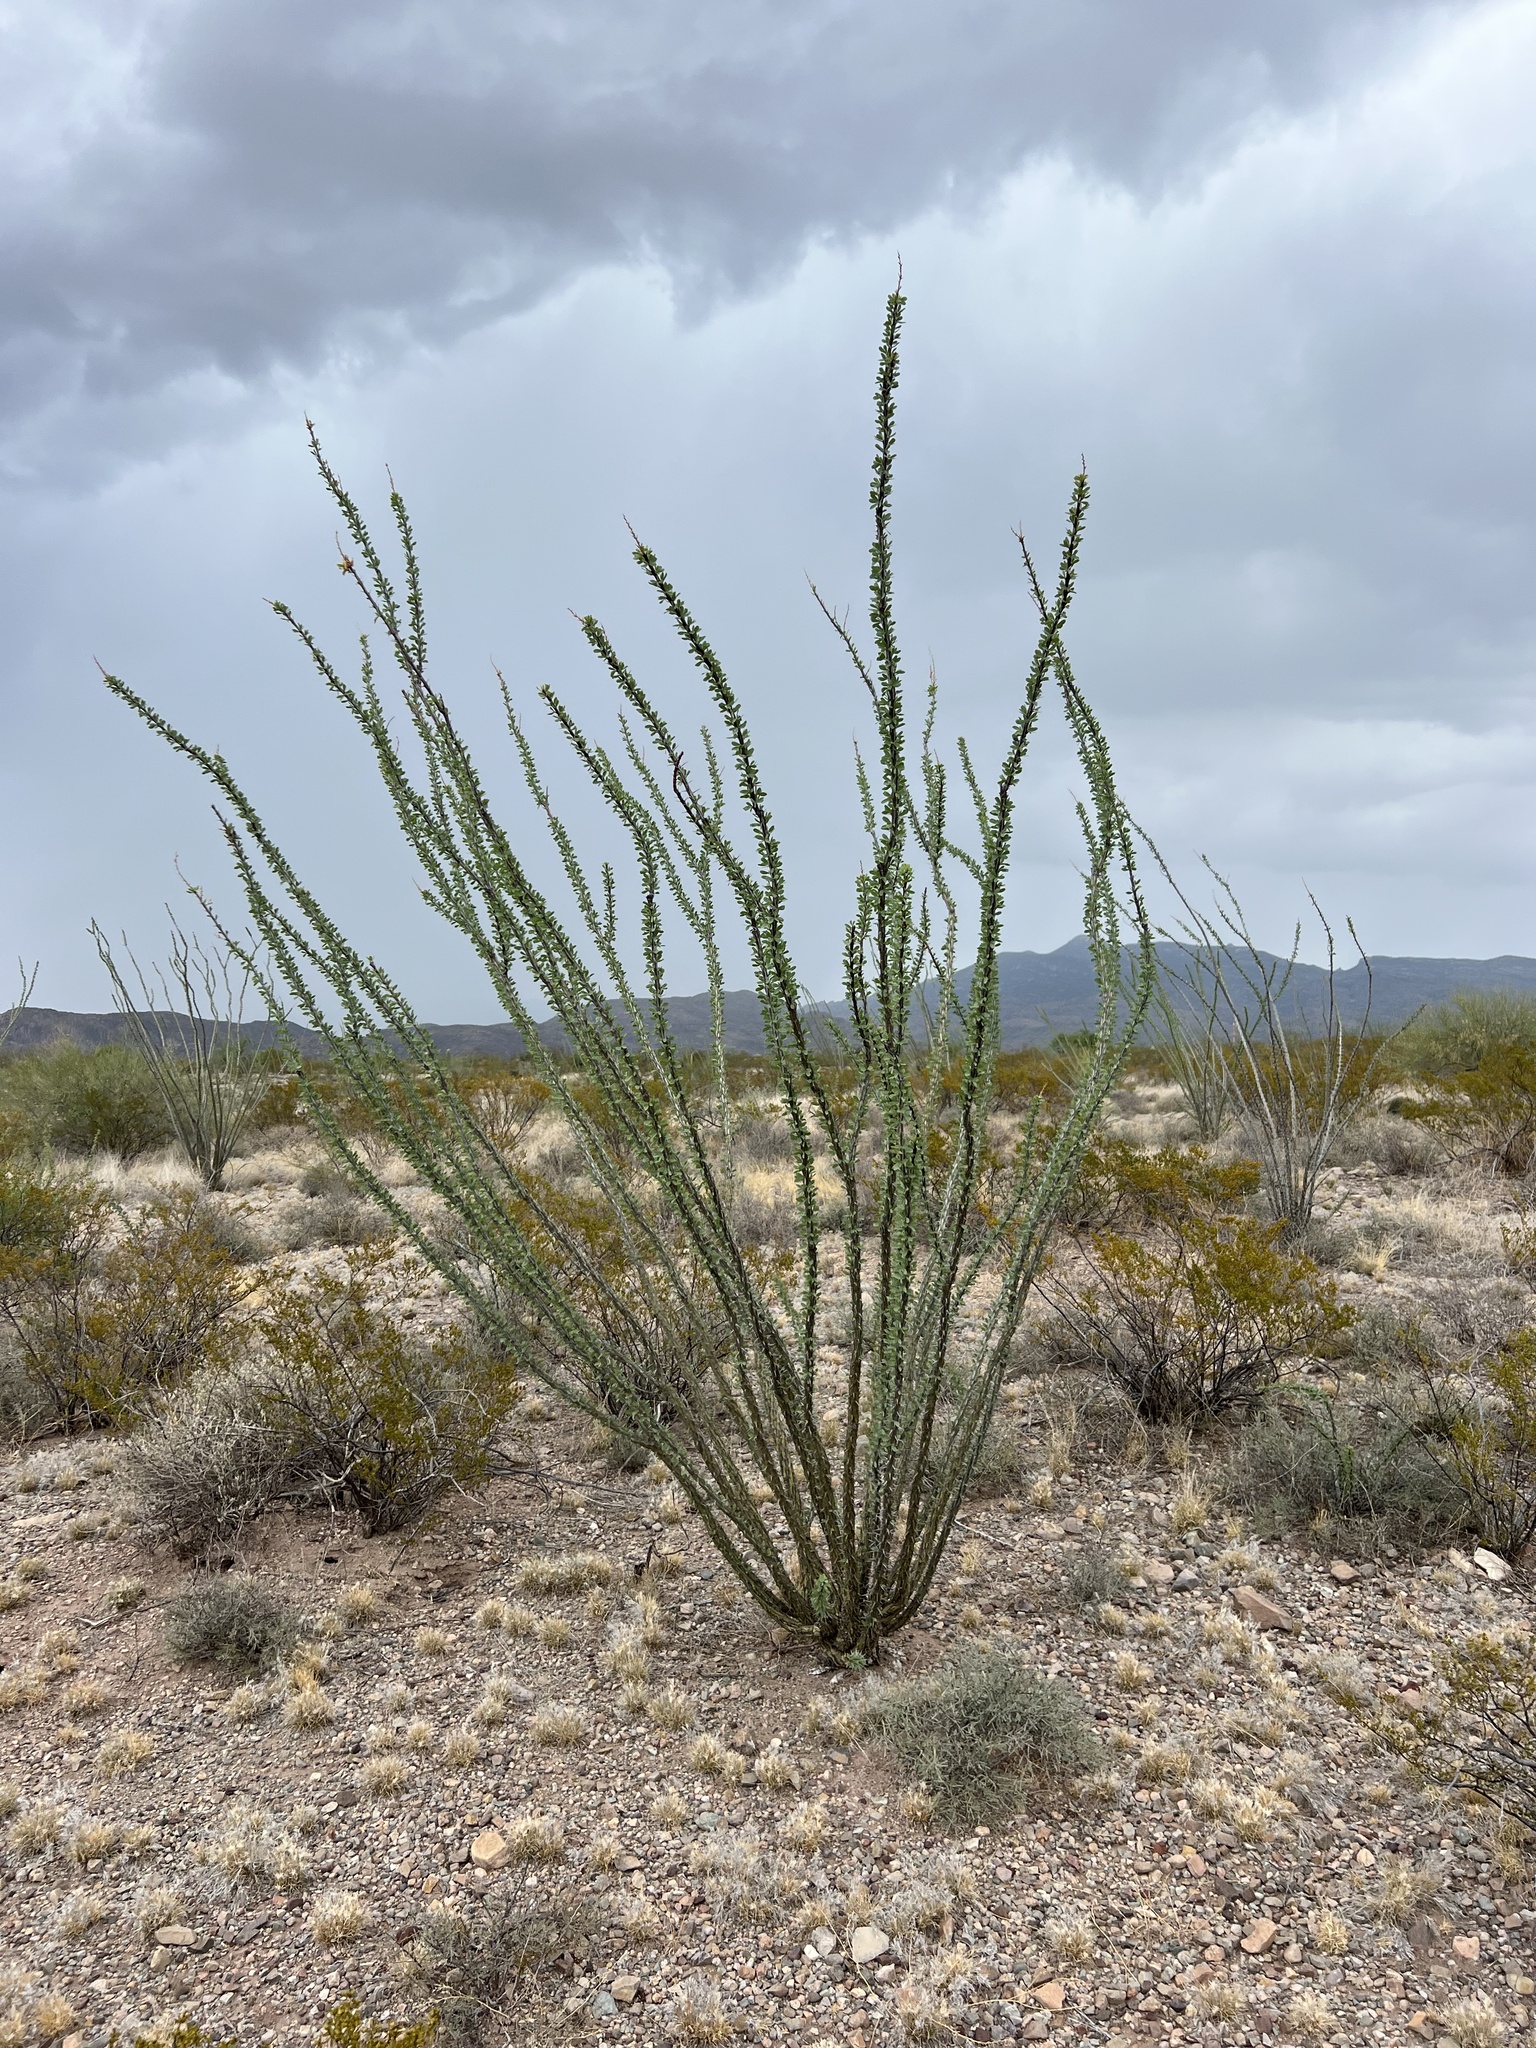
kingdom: Plantae
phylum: Tracheophyta
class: Magnoliopsida
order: Ericales
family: Fouquieriaceae
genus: Fouquieria
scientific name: Fouquieria splendens
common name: Vine-cactus
